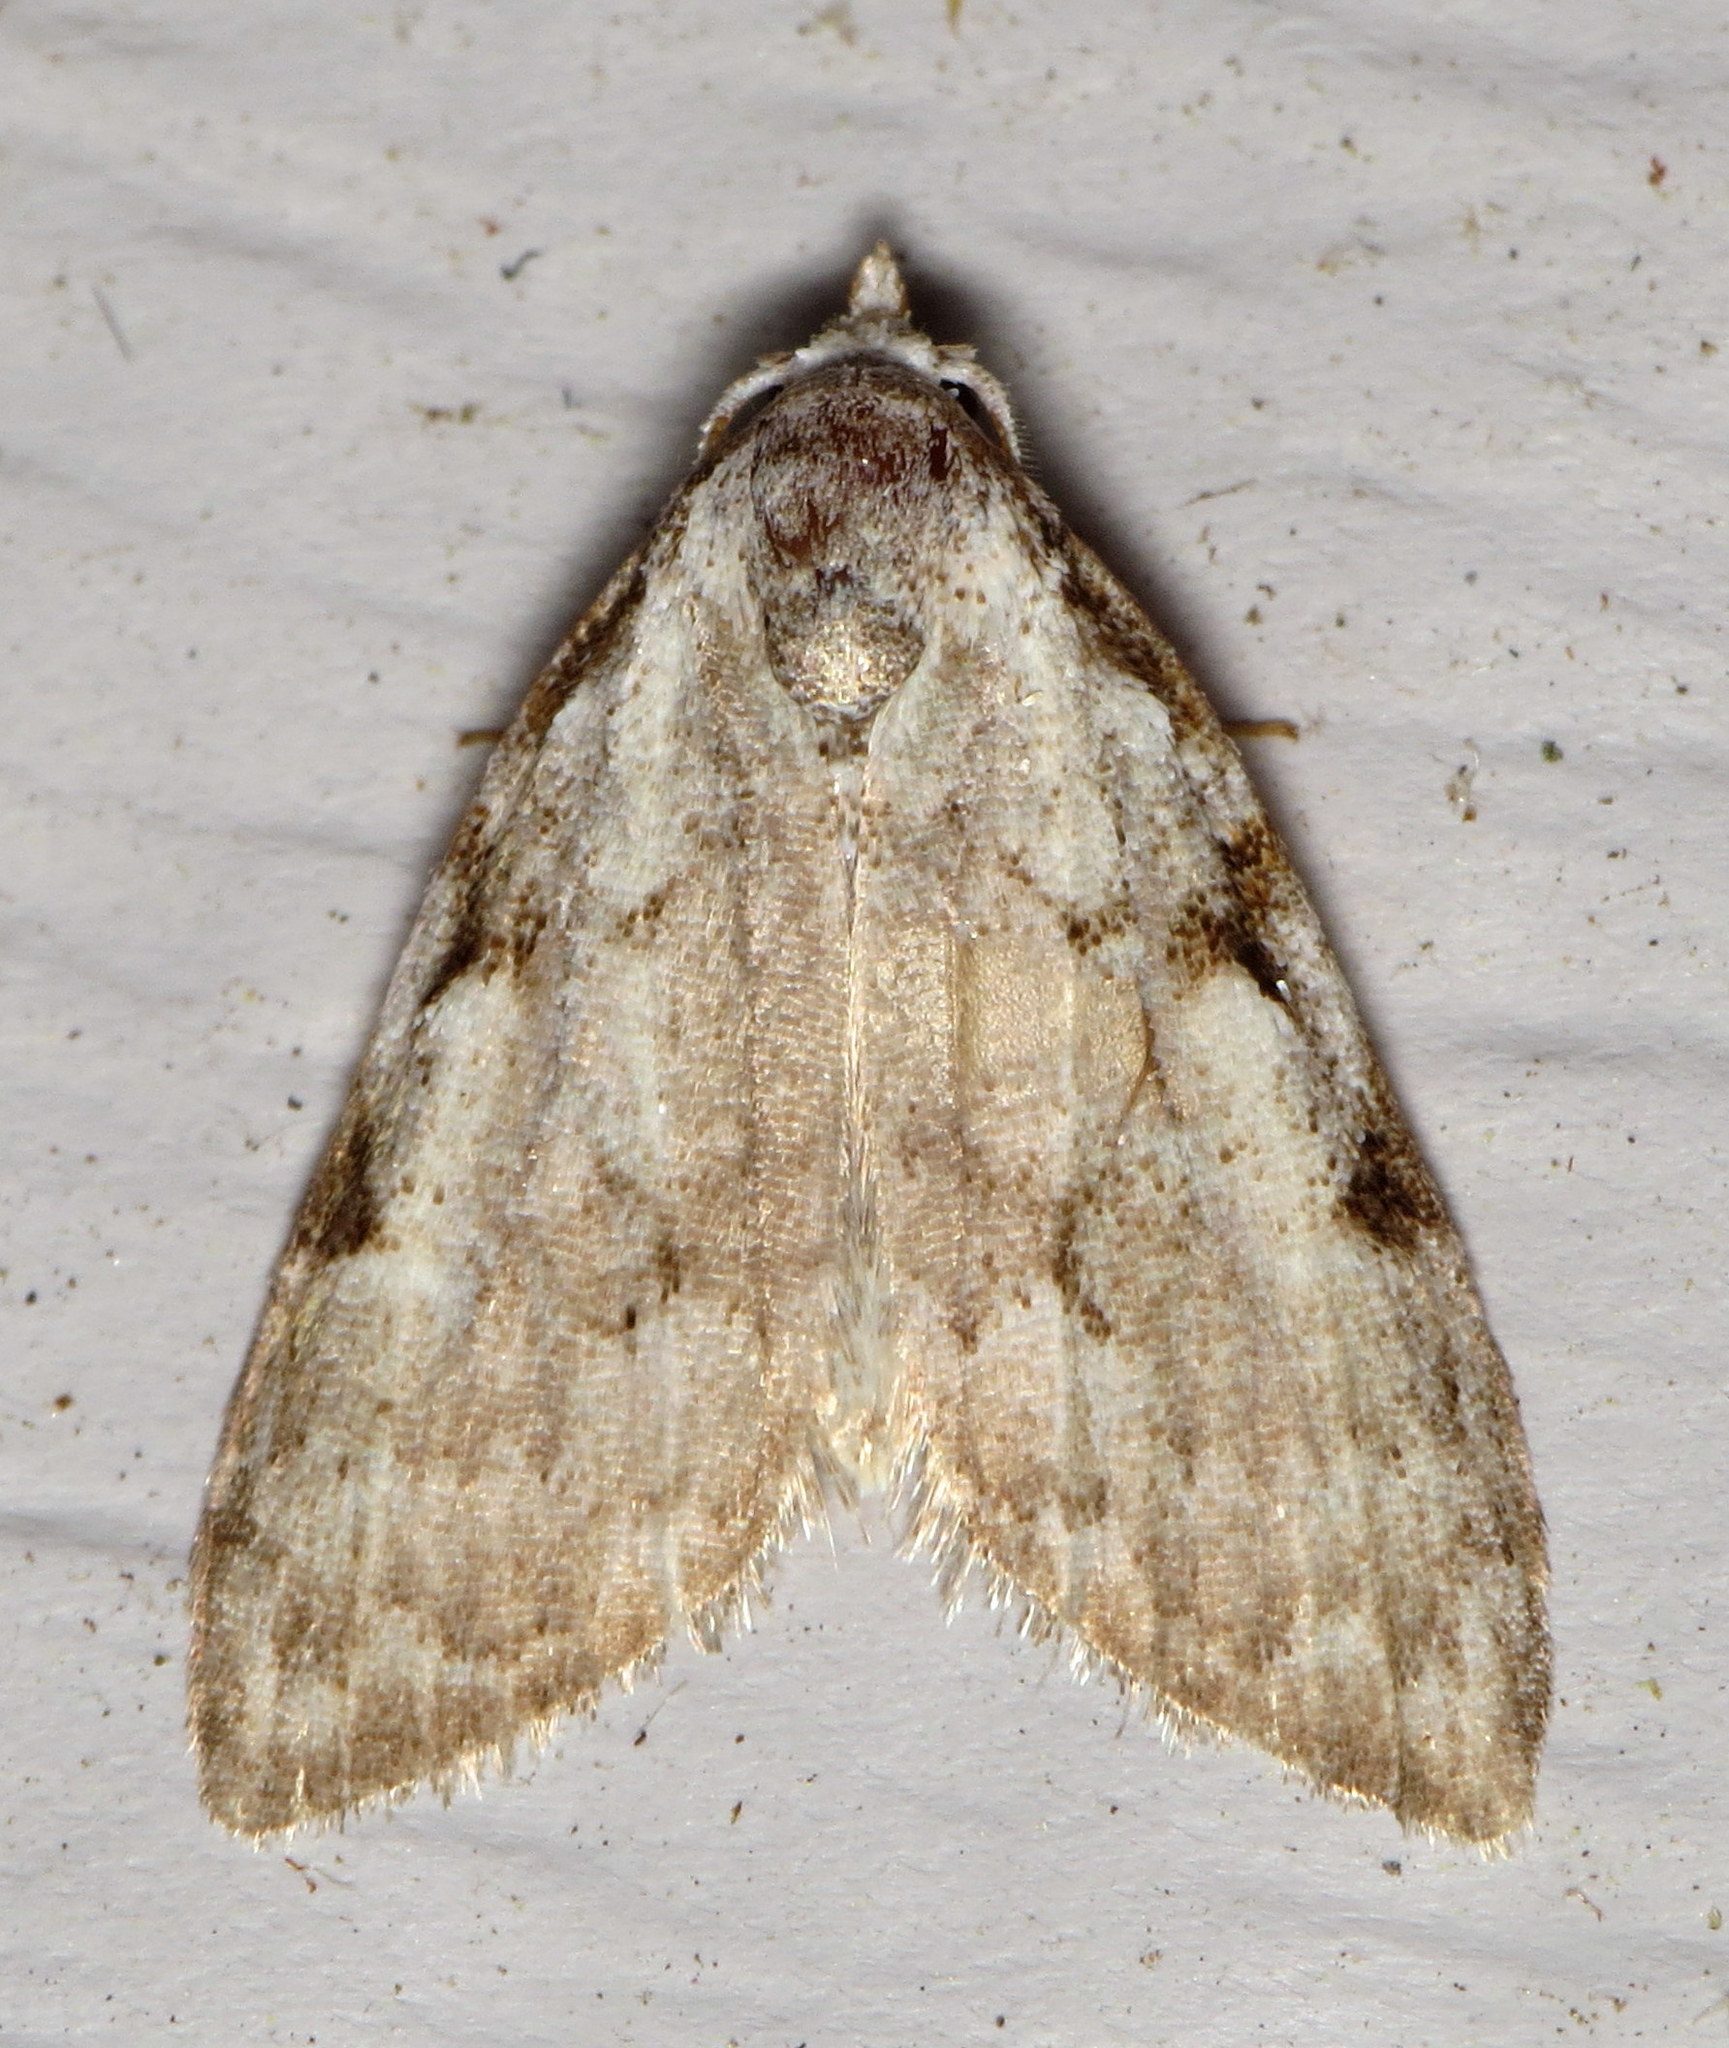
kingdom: Animalia
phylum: Arthropoda
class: Insecta
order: Lepidoptera
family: Nolidae
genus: Nola
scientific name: Nola triquetrana
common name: Three-spotted nola moth
